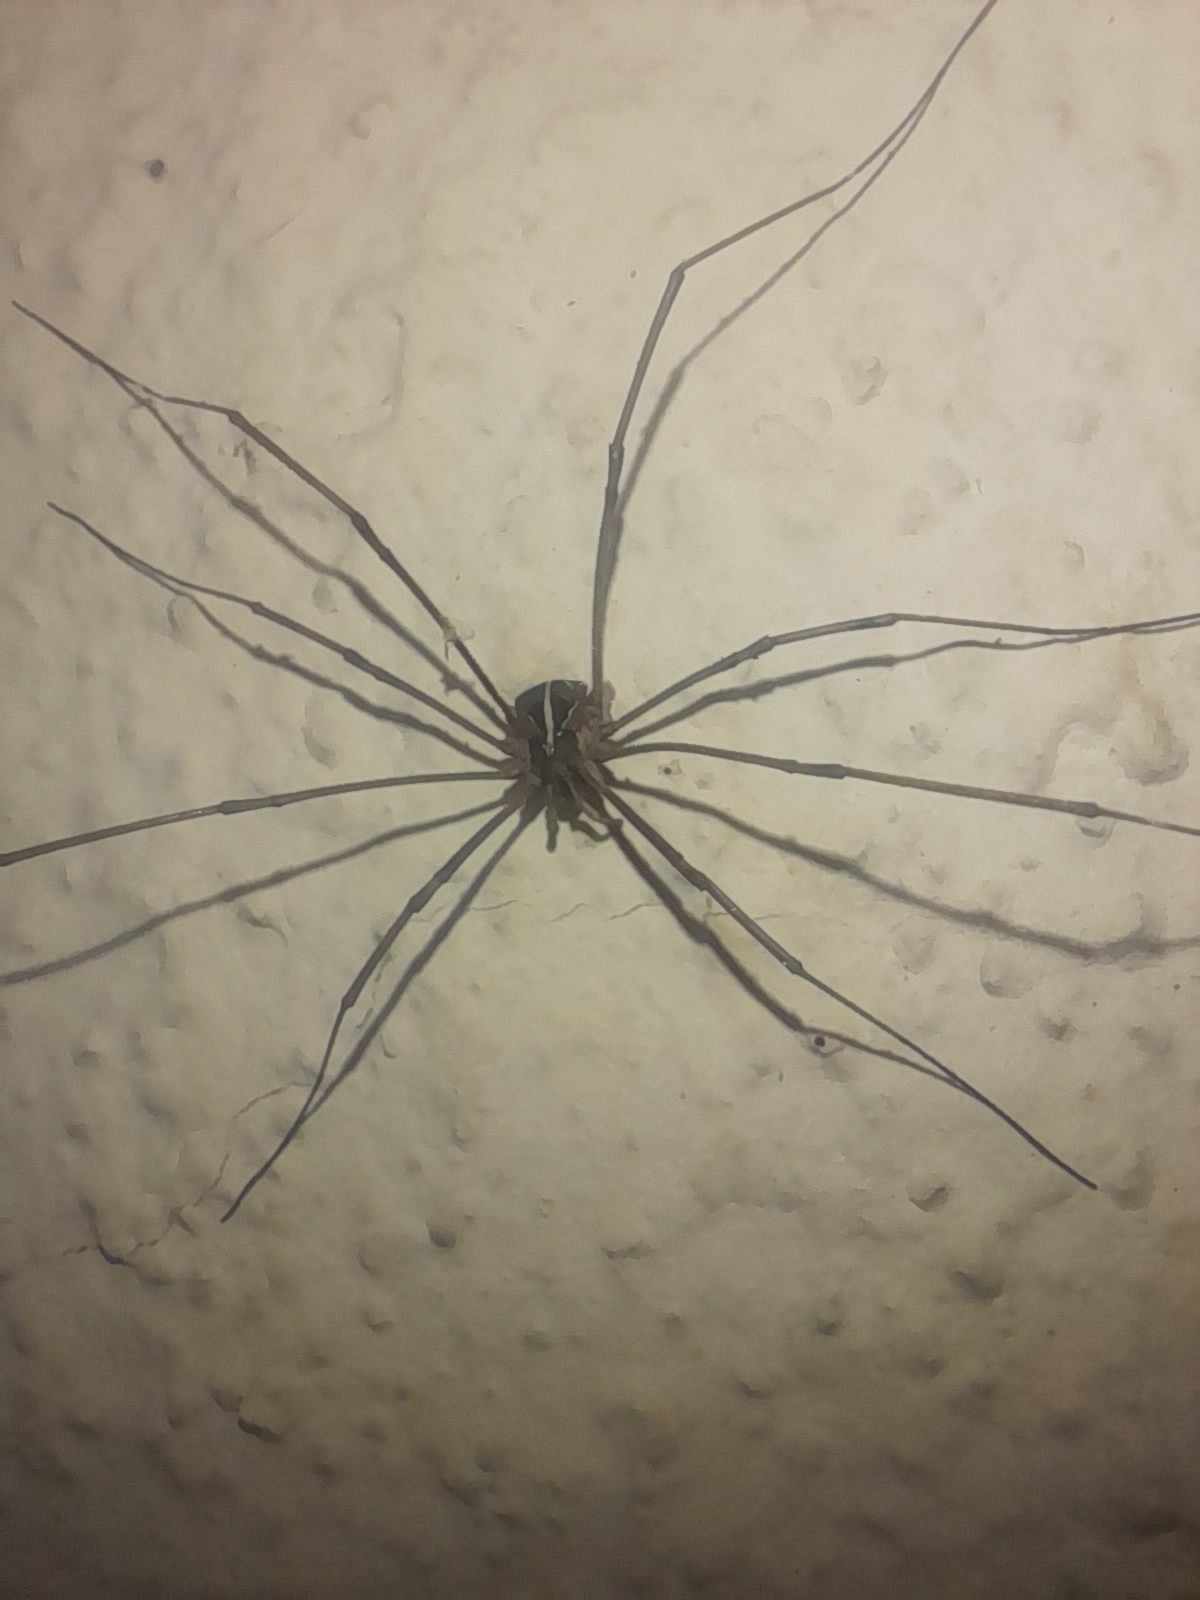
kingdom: Animalia
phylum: Arthropoda
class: Arachnida
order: Opiliones
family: Phalangiidae
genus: Metaphalangium
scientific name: Metaphalangium cirtanum
